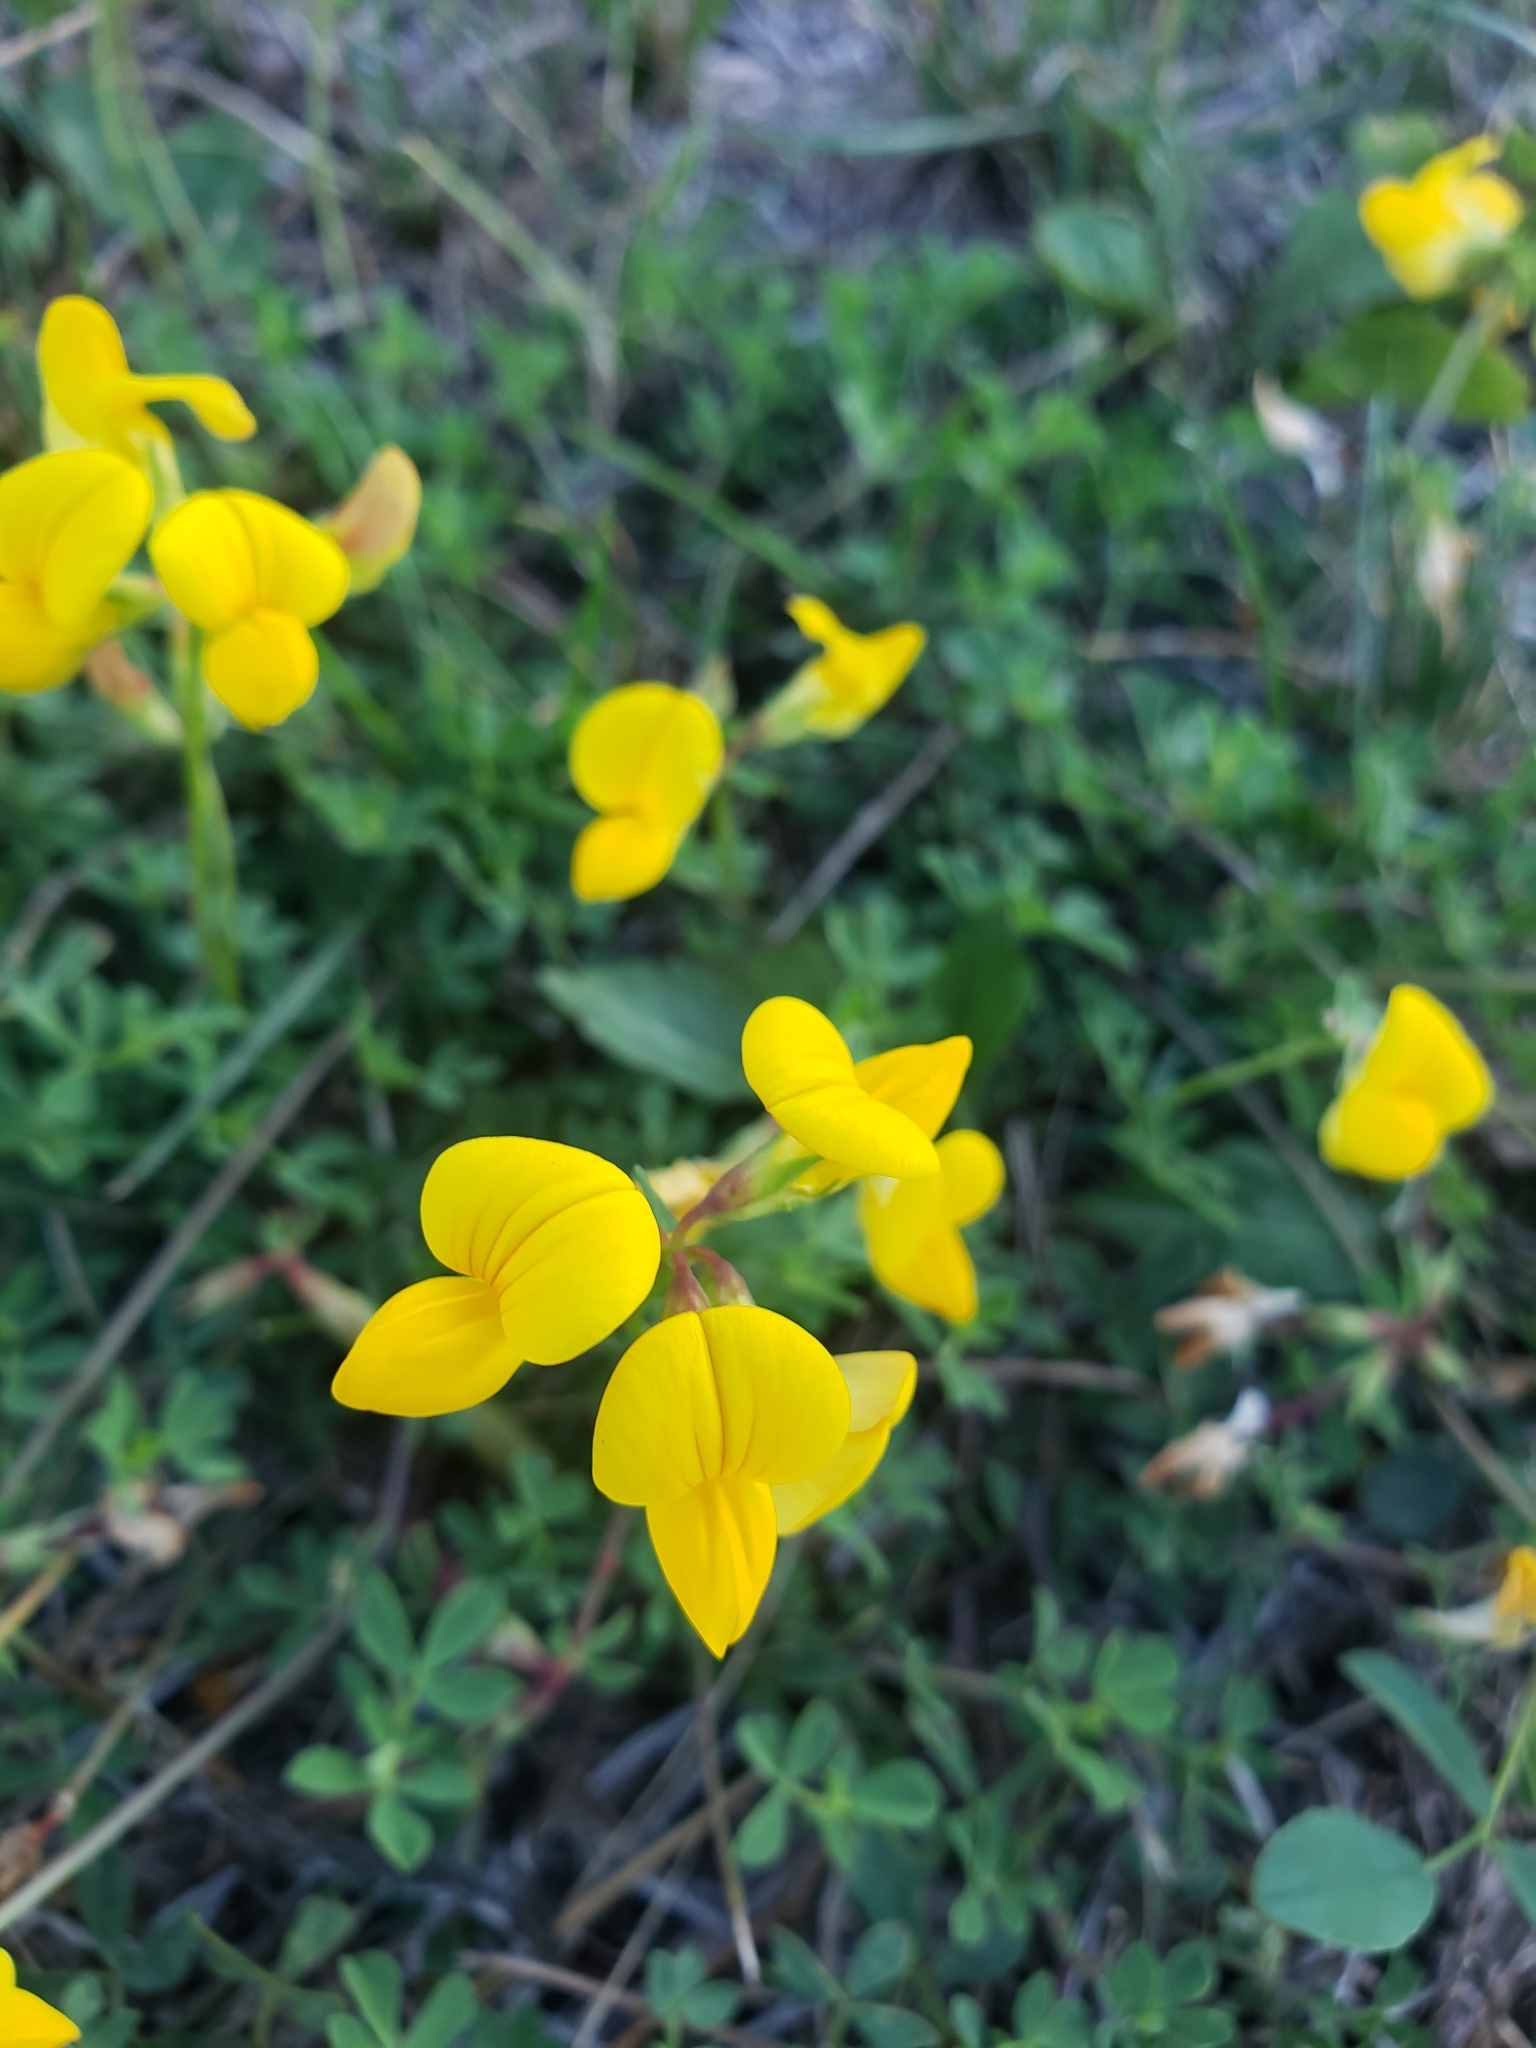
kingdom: Plantae
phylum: Tracheophyta
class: Magnoliopsida
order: Fabales
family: Fabaceae
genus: Lotus
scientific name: Lotus corniculatus
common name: Common bird's-foot-trefoil
